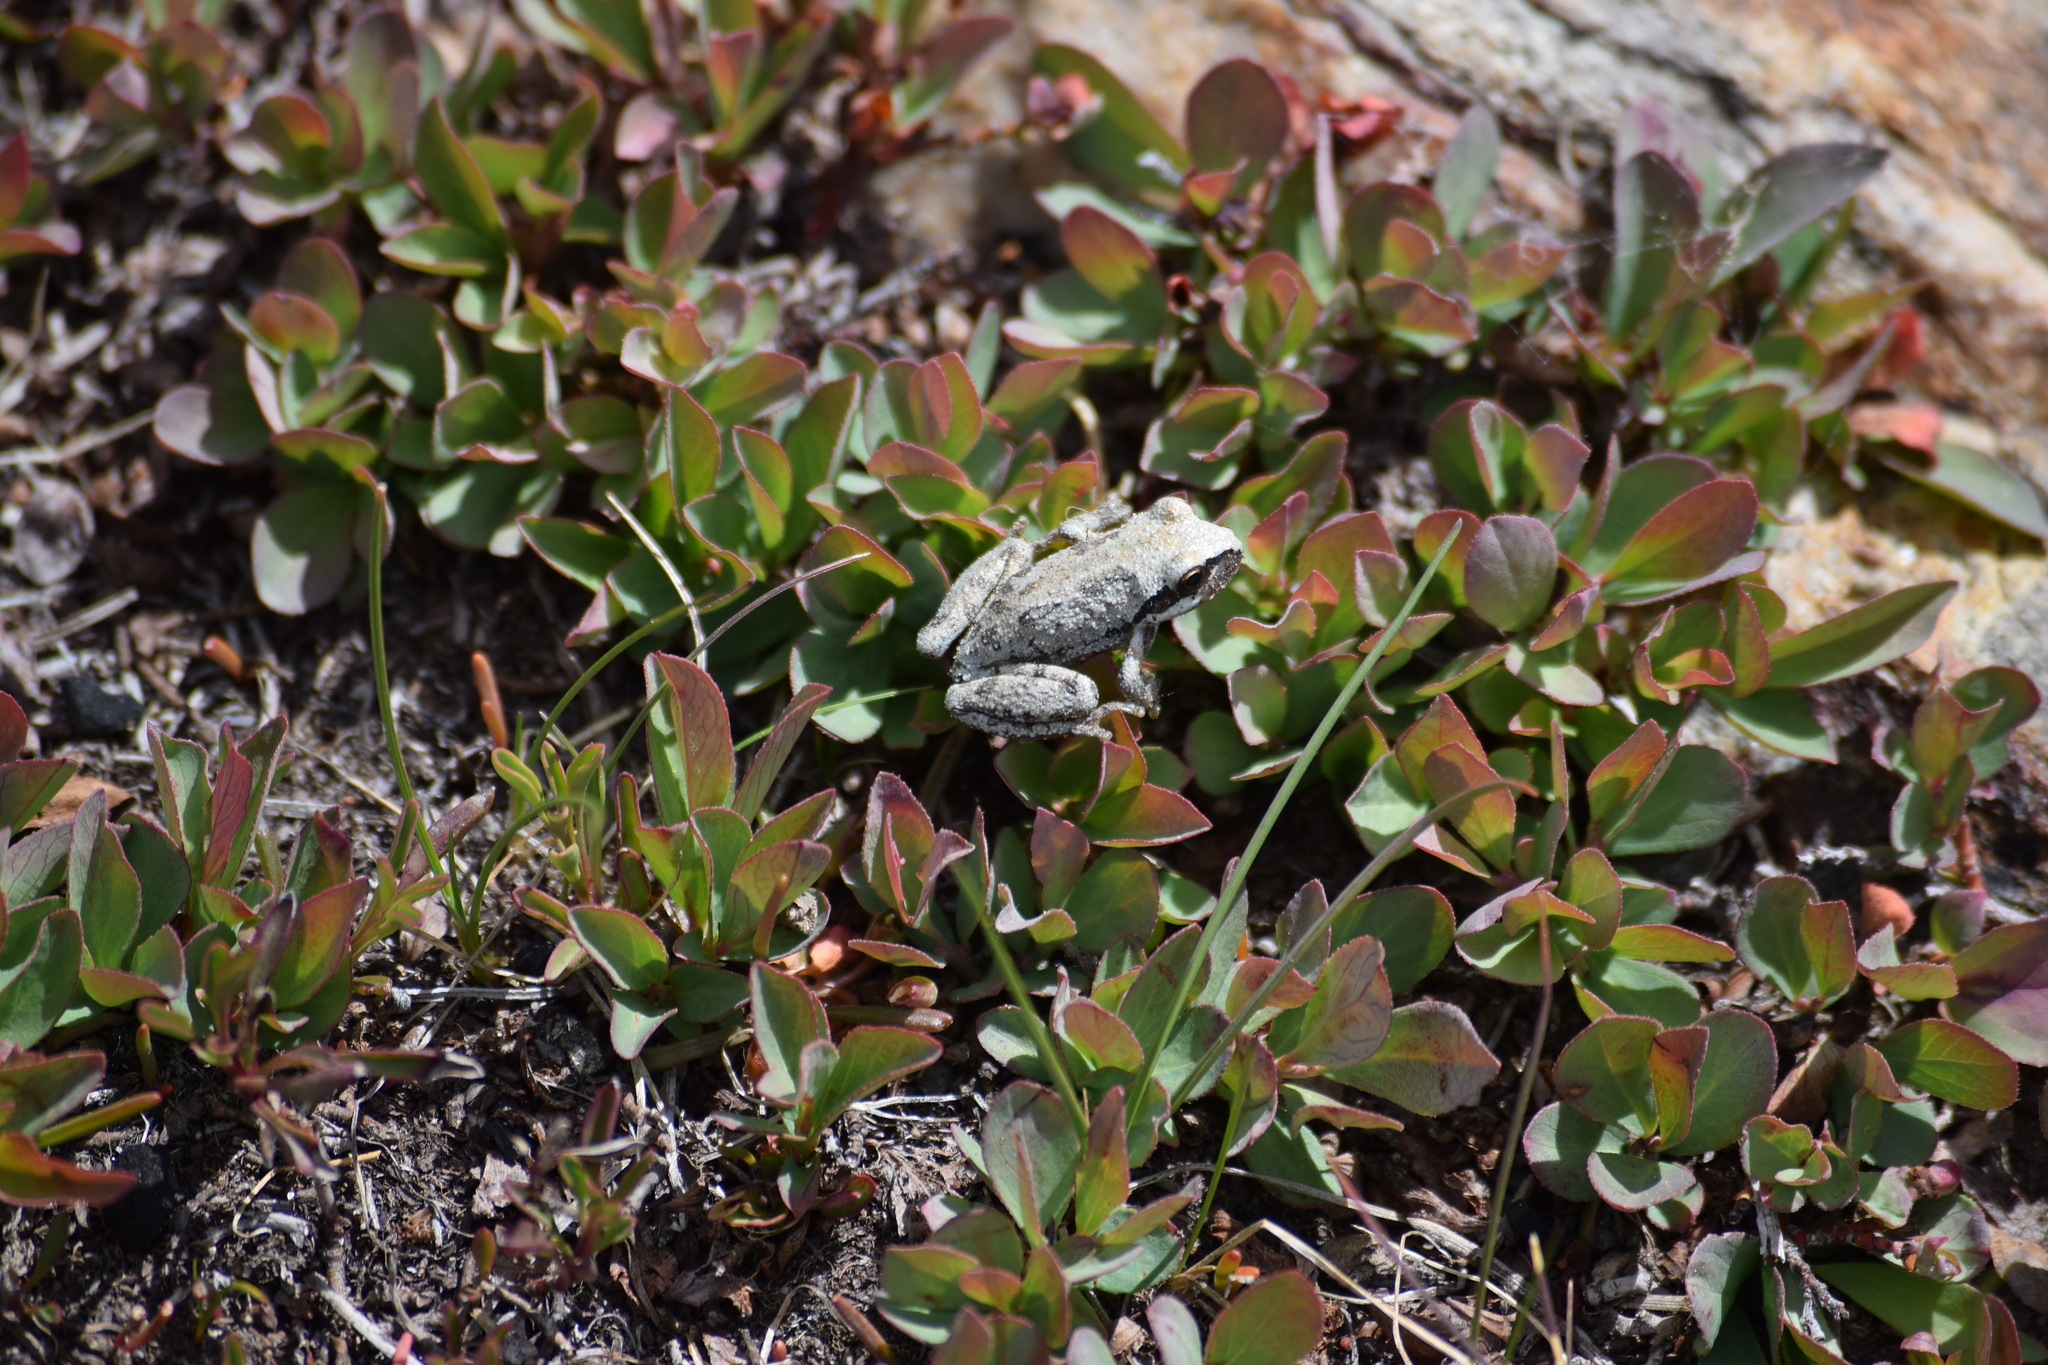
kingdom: Animalia
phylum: Chordata
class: Amphibia
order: Anura
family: Hylidae
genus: Pseudacris
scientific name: Pseudacris regilla
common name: Pacific chorus frog
